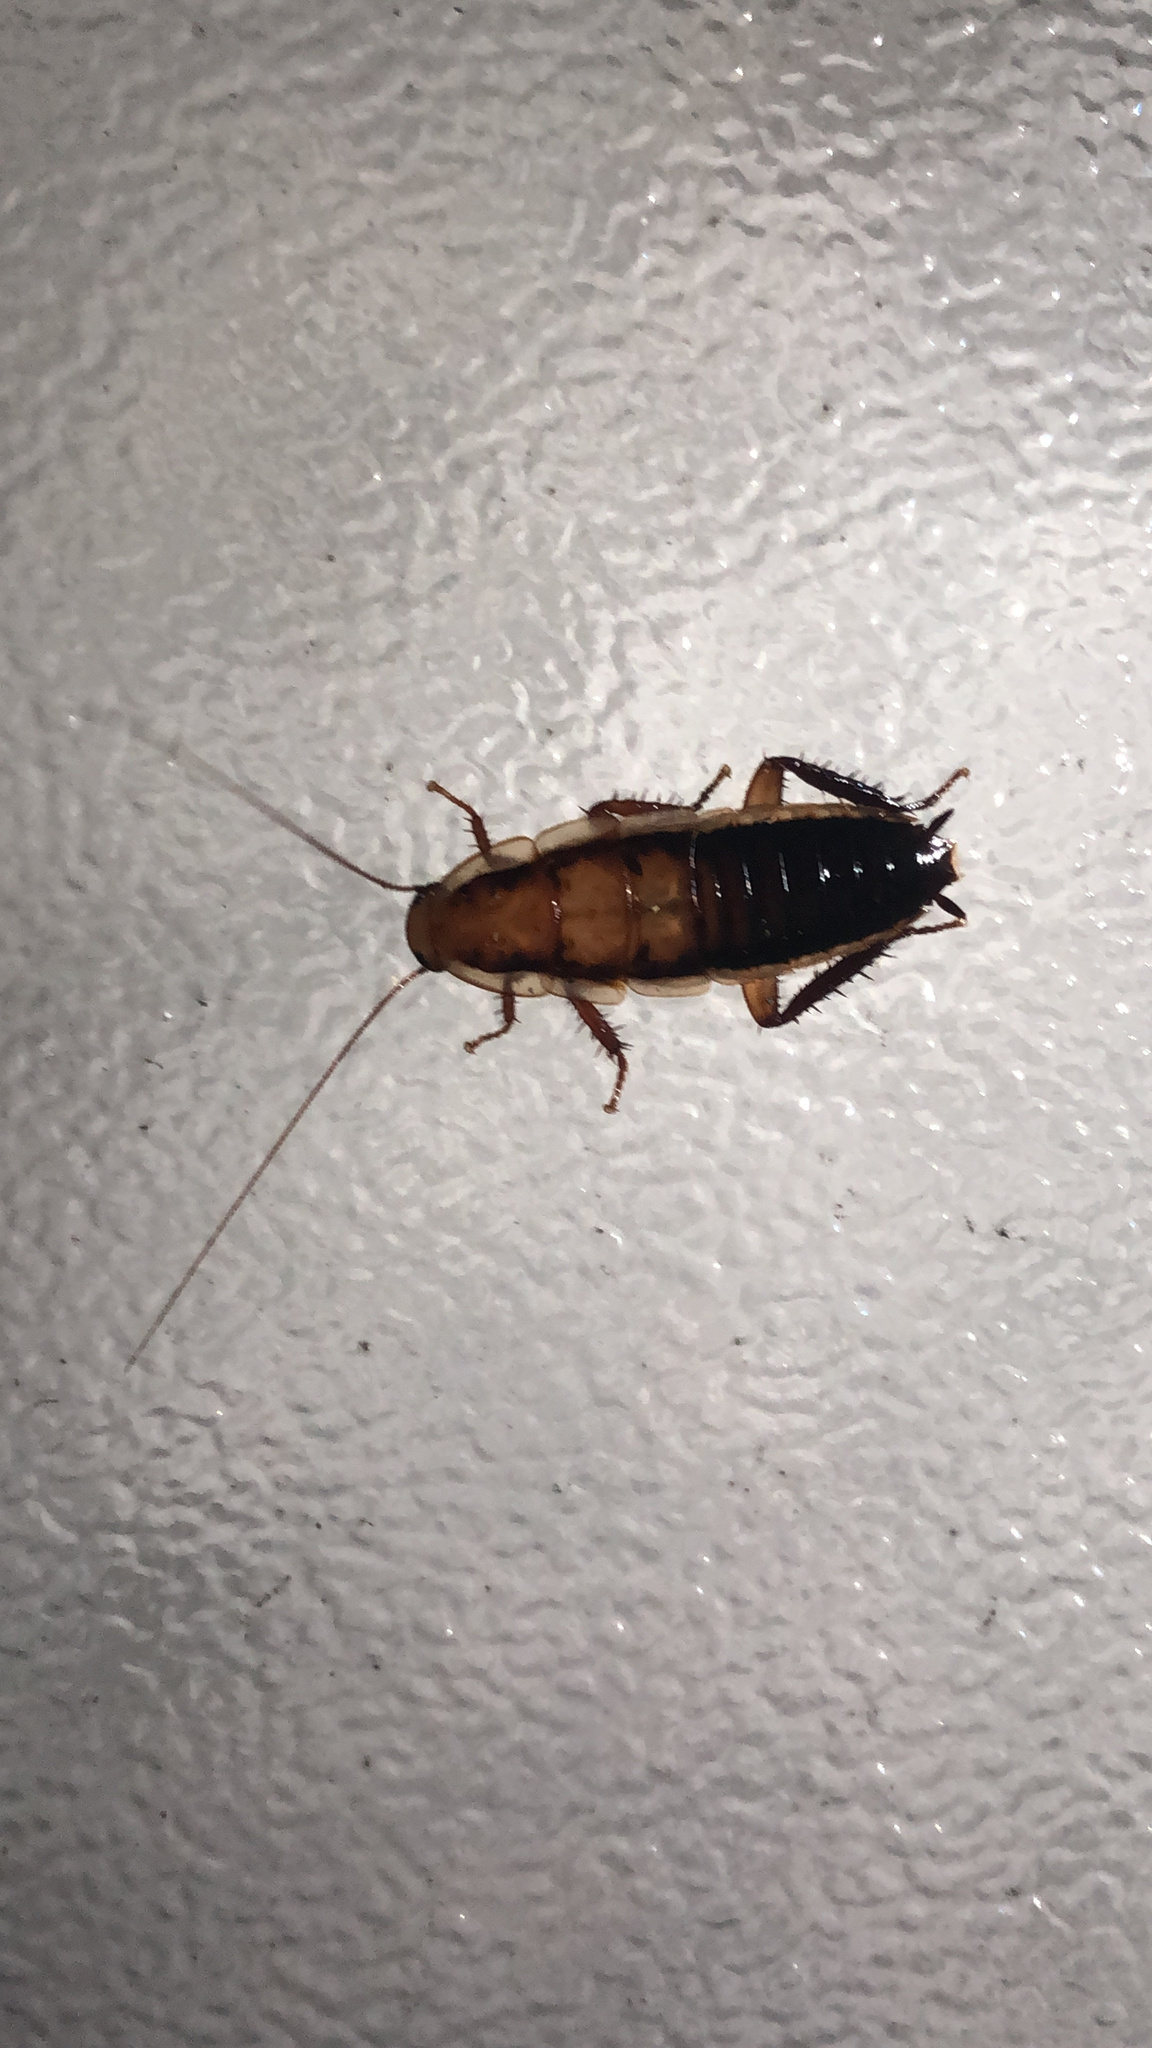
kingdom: Animalia
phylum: Arthropoda
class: Insecta
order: Blattodea
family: Blattidae
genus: Drymaplaneta
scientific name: Drymaplaneta heydeniana
